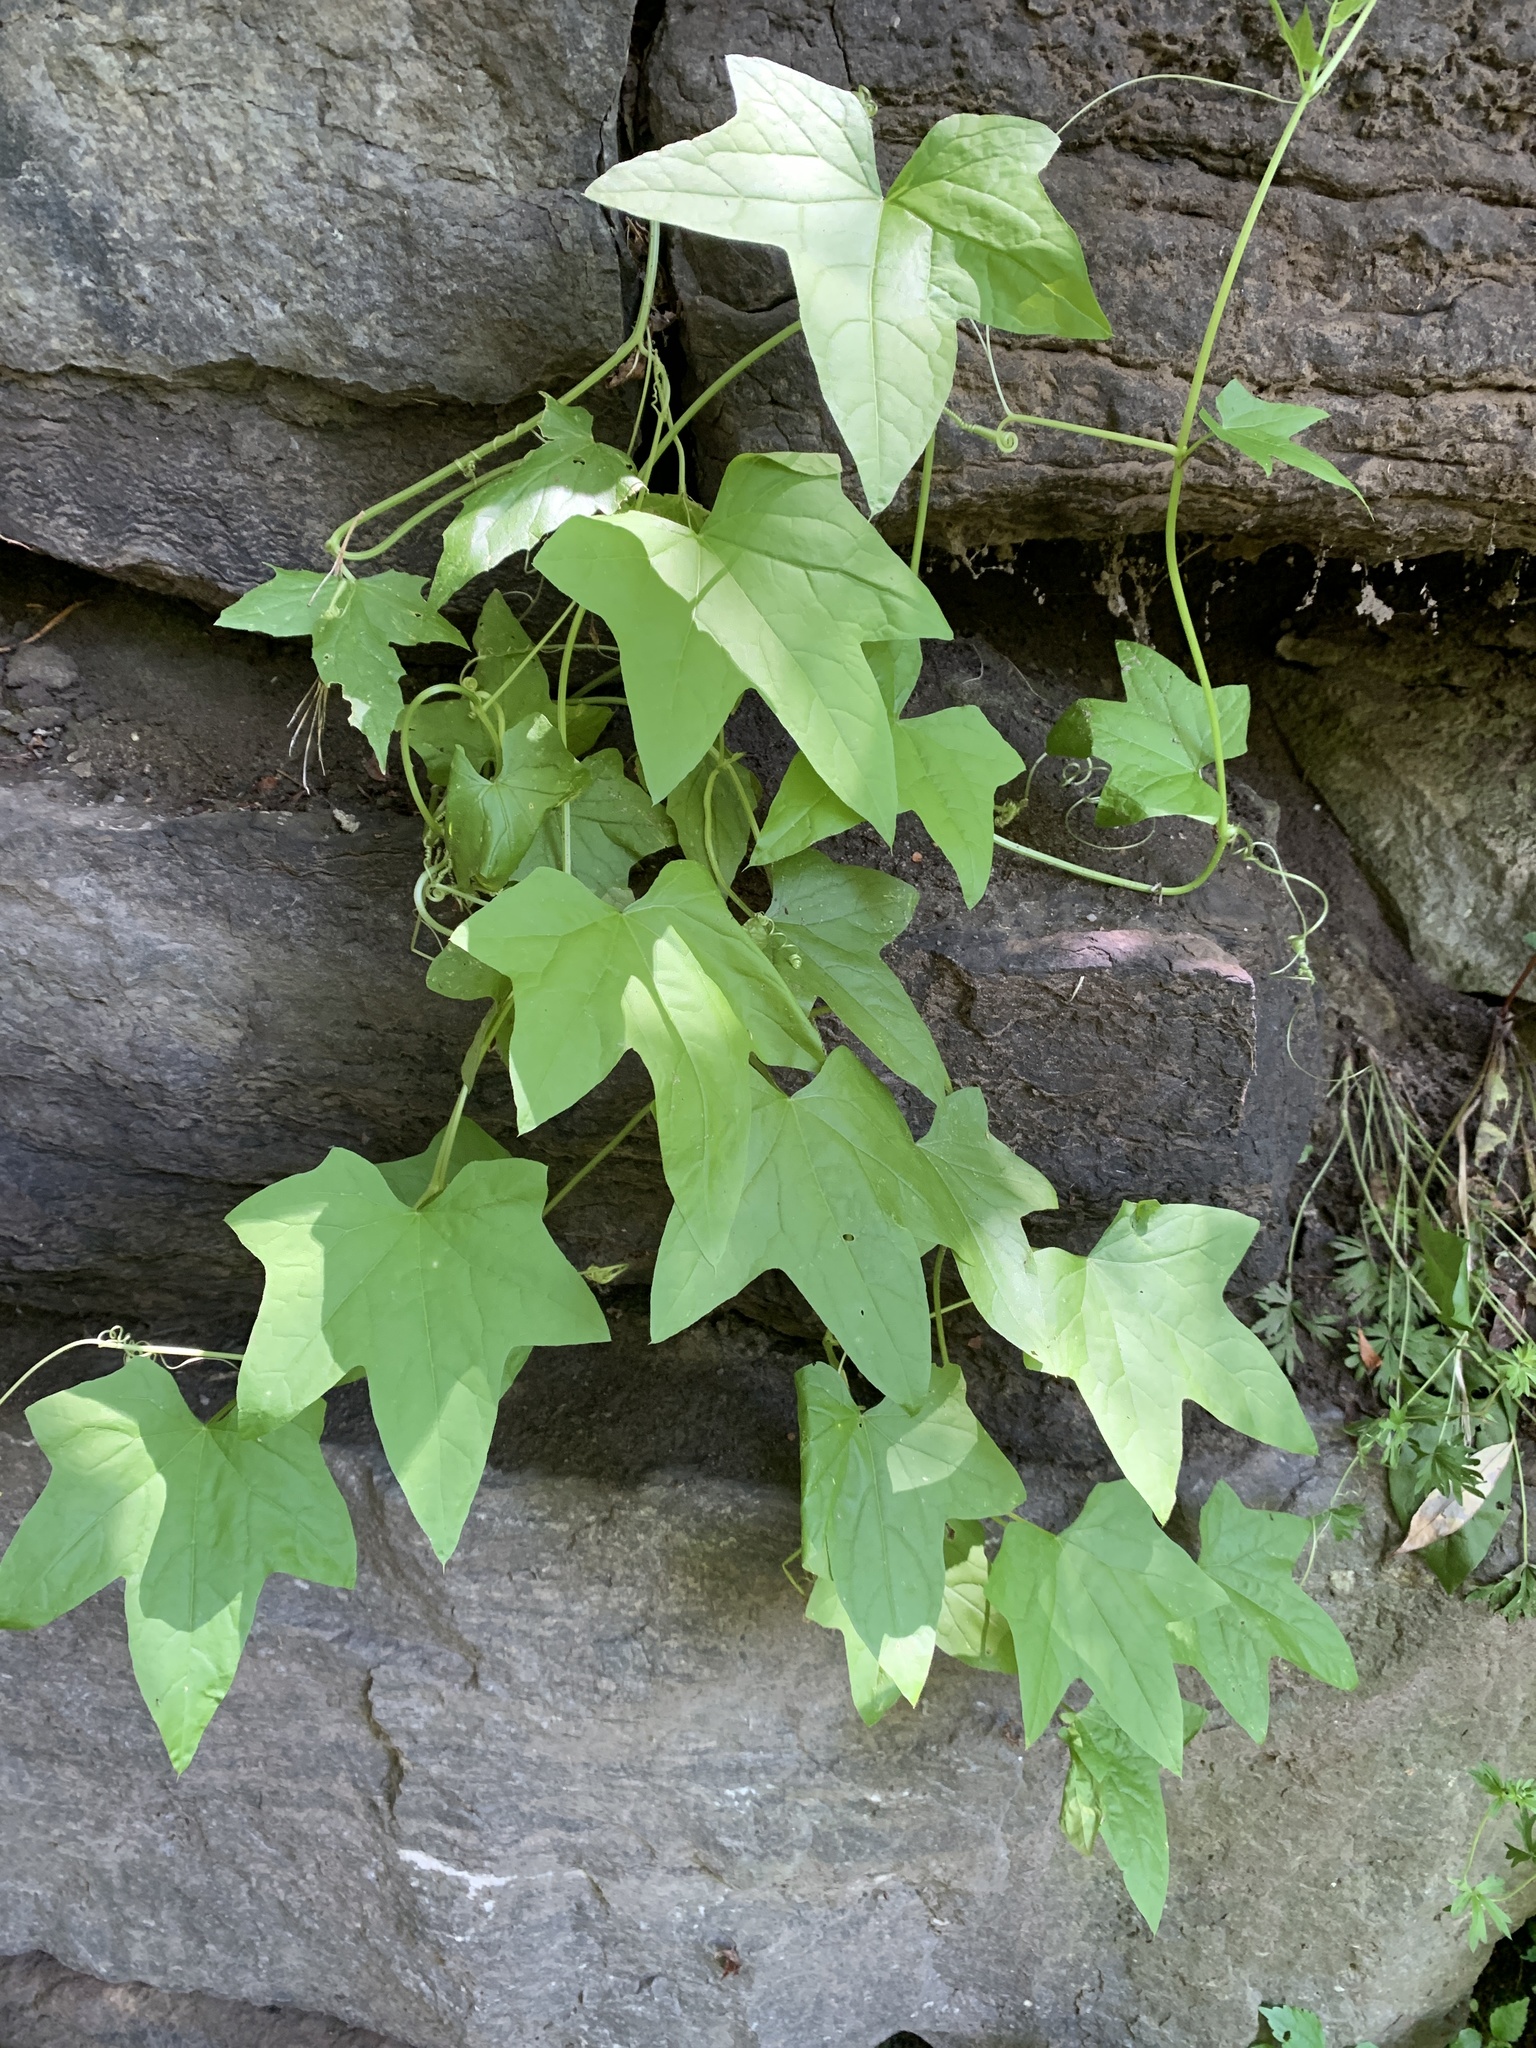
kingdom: Plantae
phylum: Tracheophyta
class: Magnoliopsida
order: Cucurbitales
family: Cucurbitaceae
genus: Echinocystis
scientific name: Echinocystis lobata
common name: Wild cucumber
